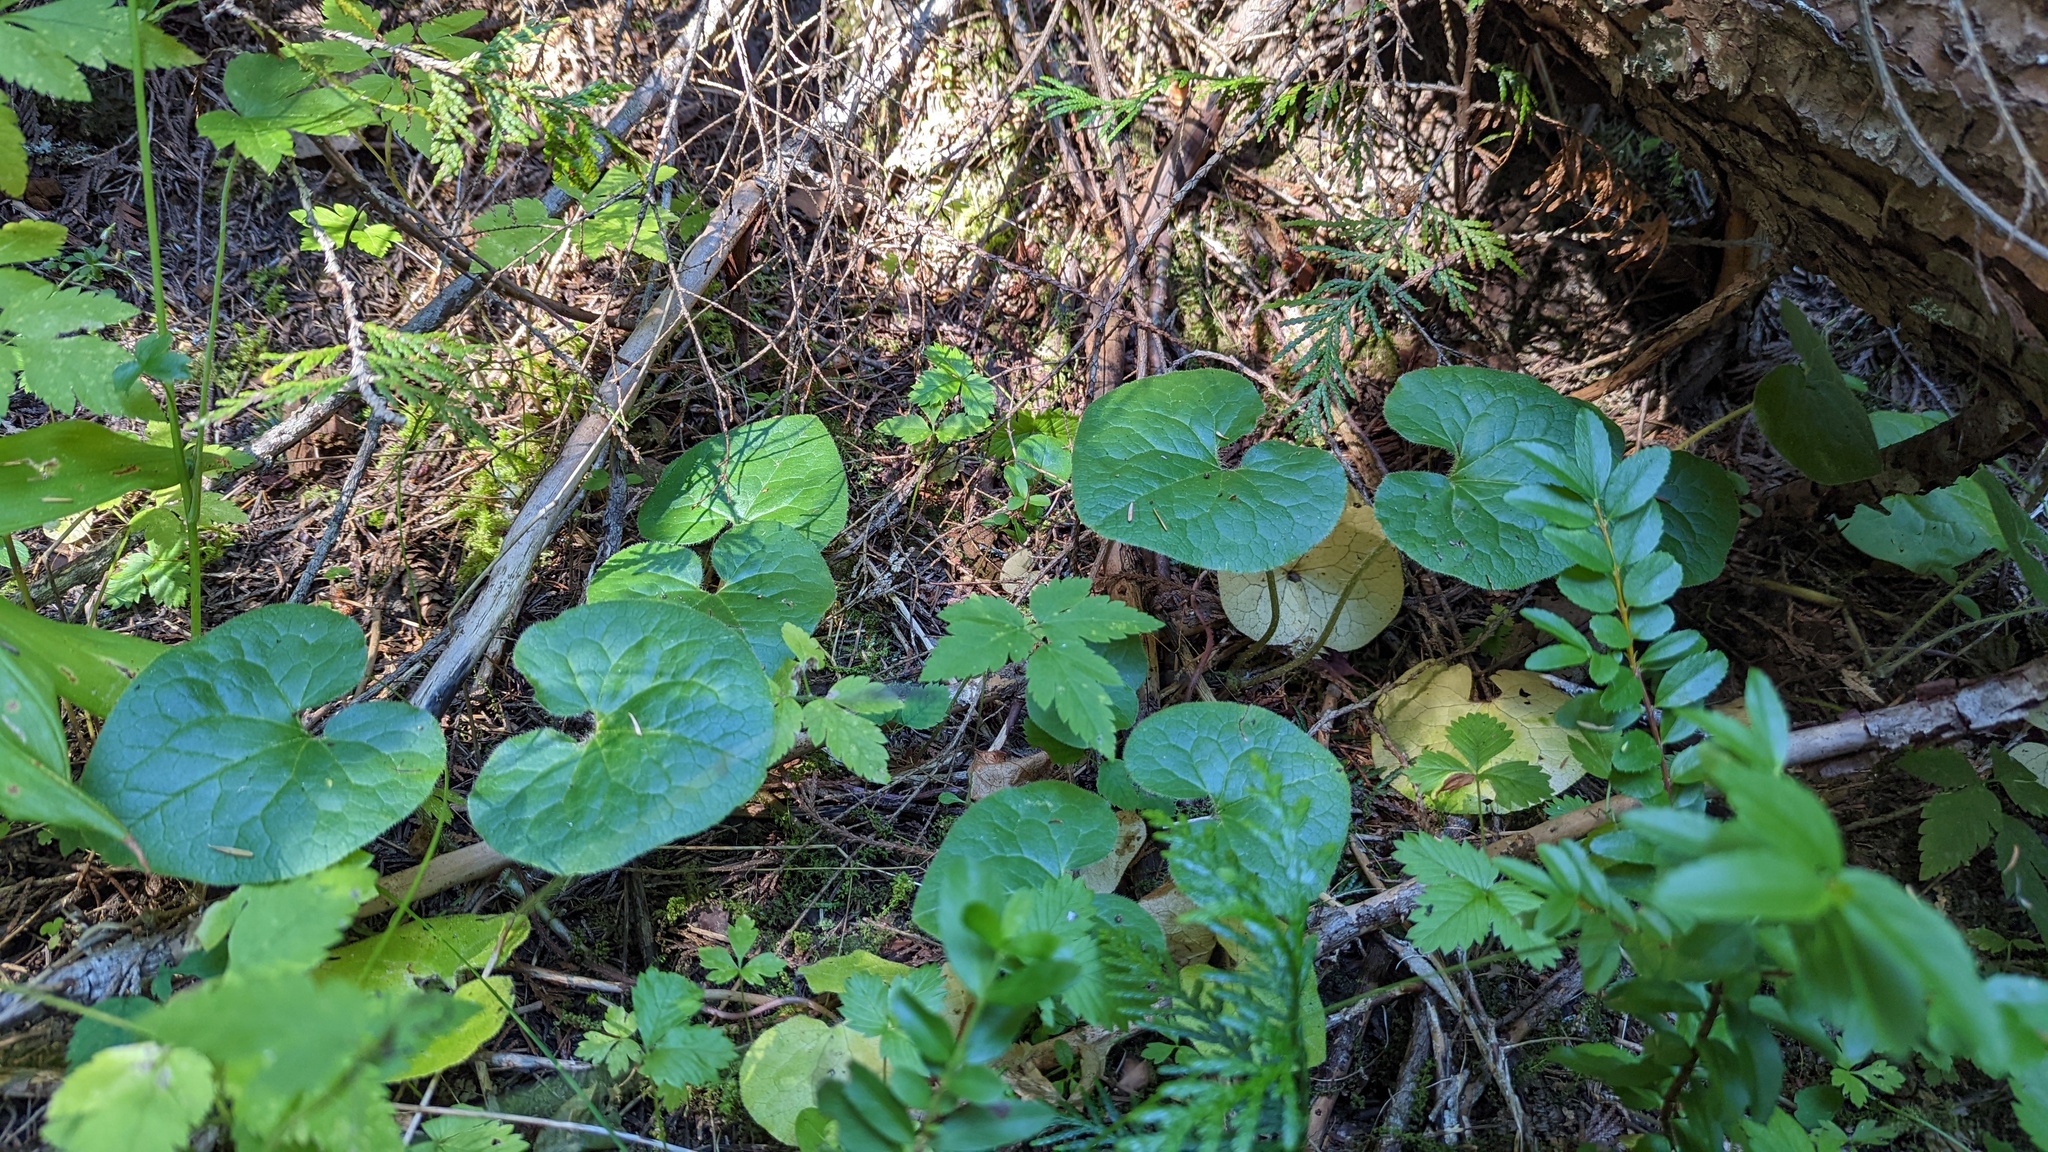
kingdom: Plantae
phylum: Tracheophyta
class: Magnoliopsida
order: Piperales
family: Aristolochiaceae
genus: Asarum
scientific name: Asarum caudatum
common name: Wild ginger
